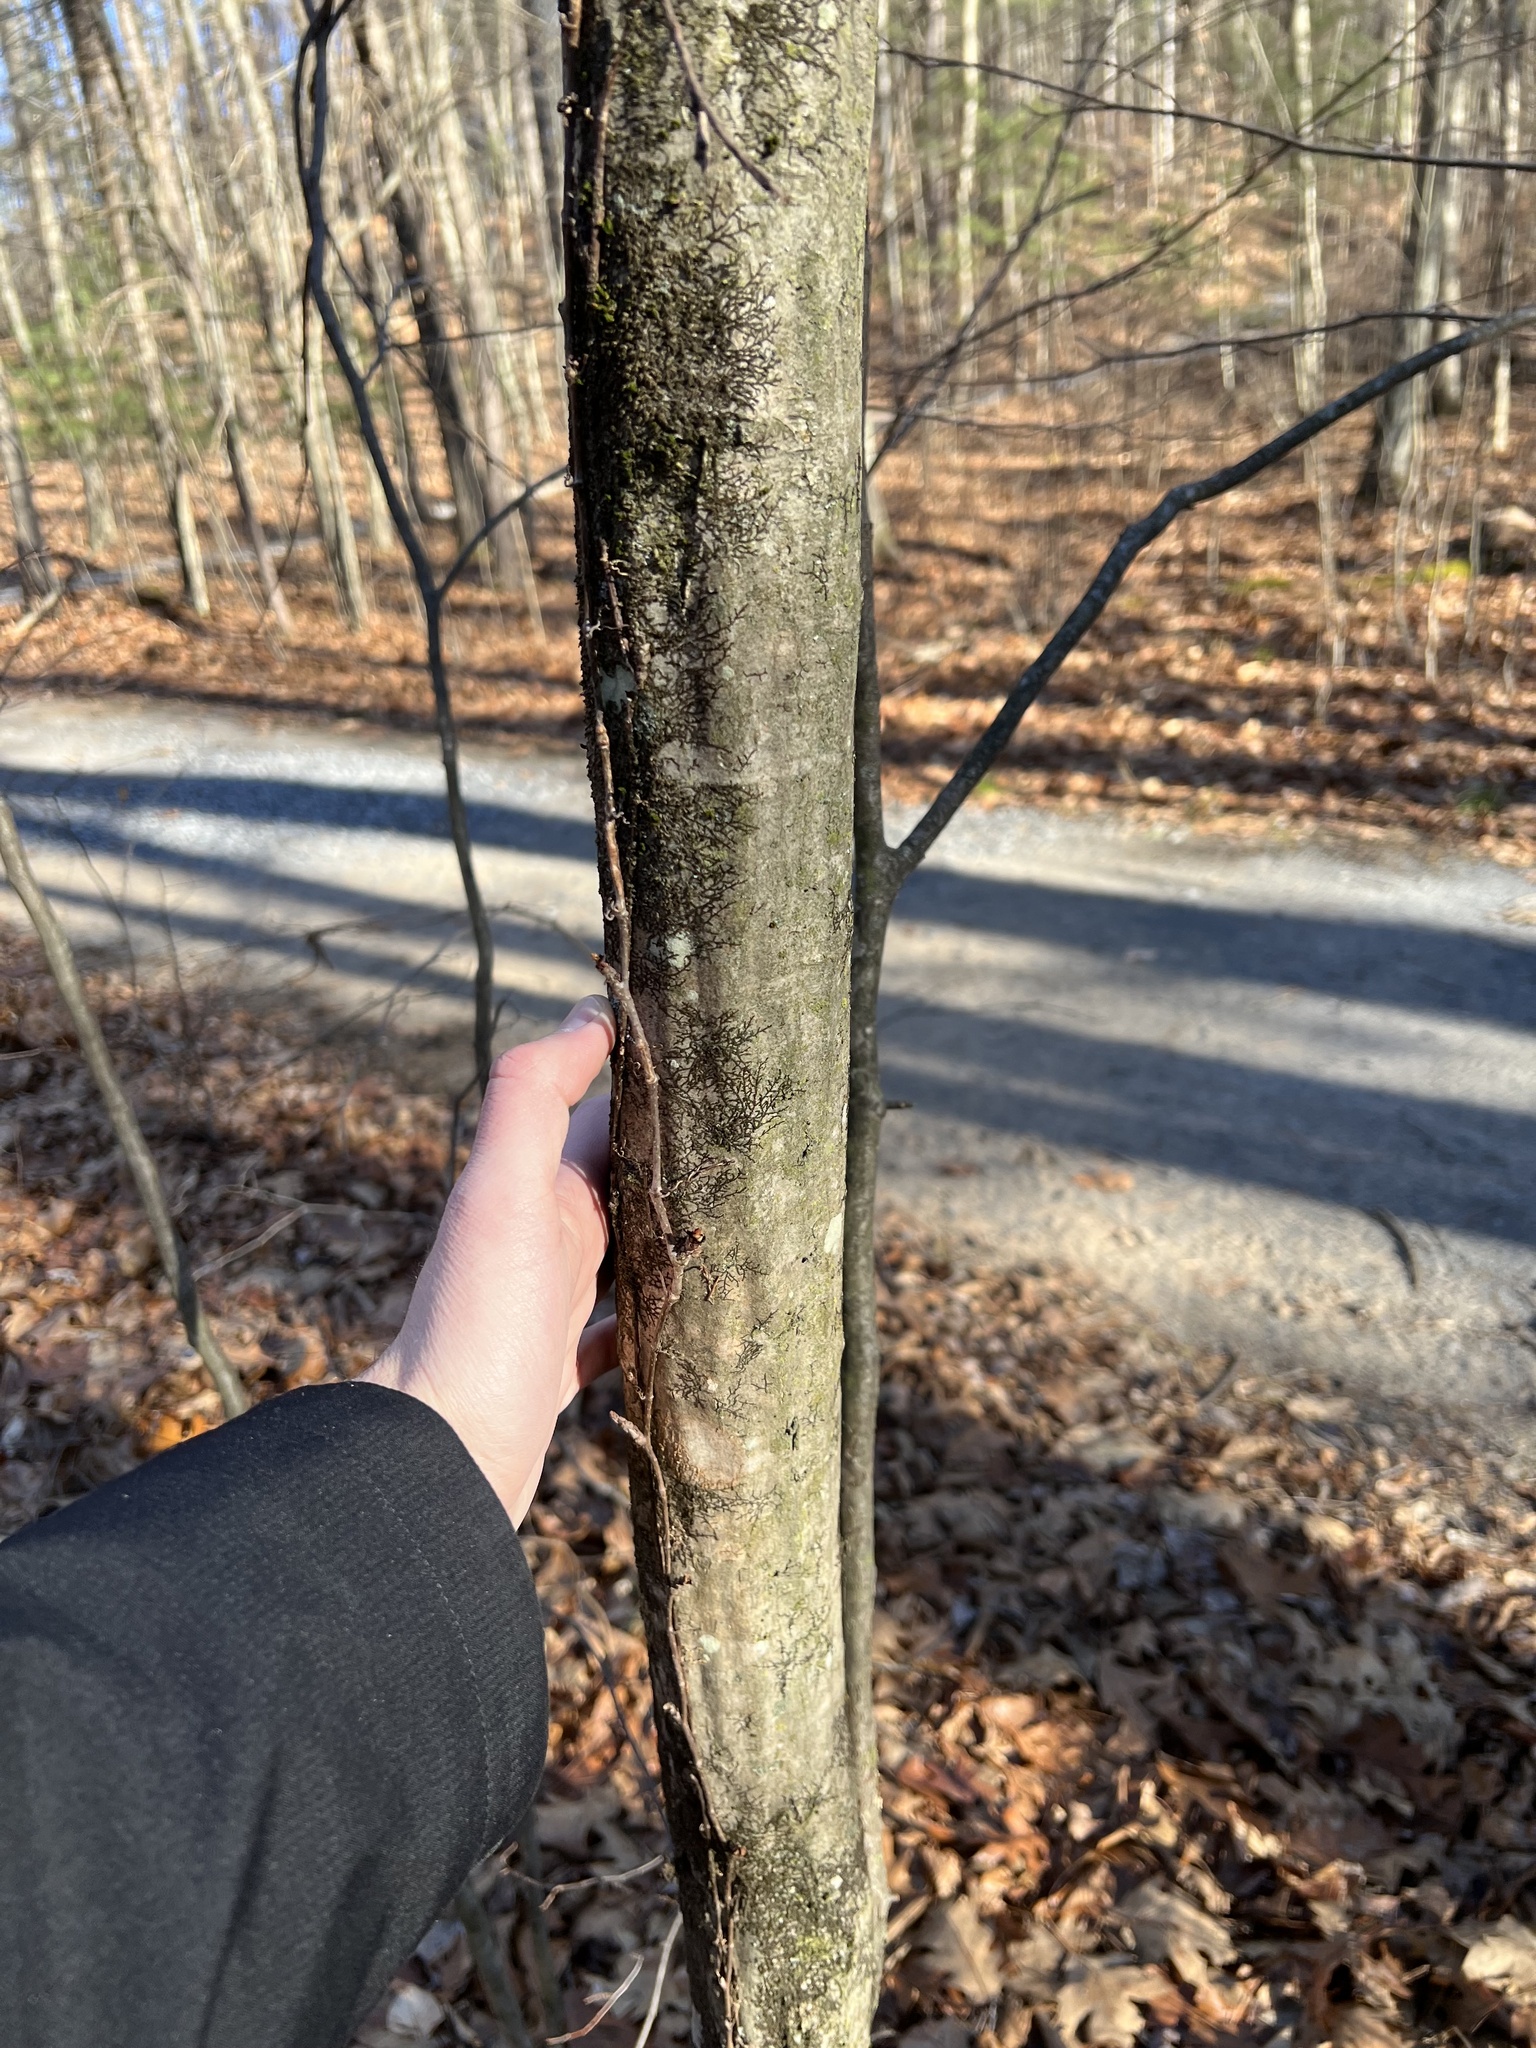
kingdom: Plantae
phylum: Tracheophyta
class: Magnoliopsida
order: Fagales
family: Betulaceae
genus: Carpinus
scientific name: Carpinus caroliniana
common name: American hornbeam
